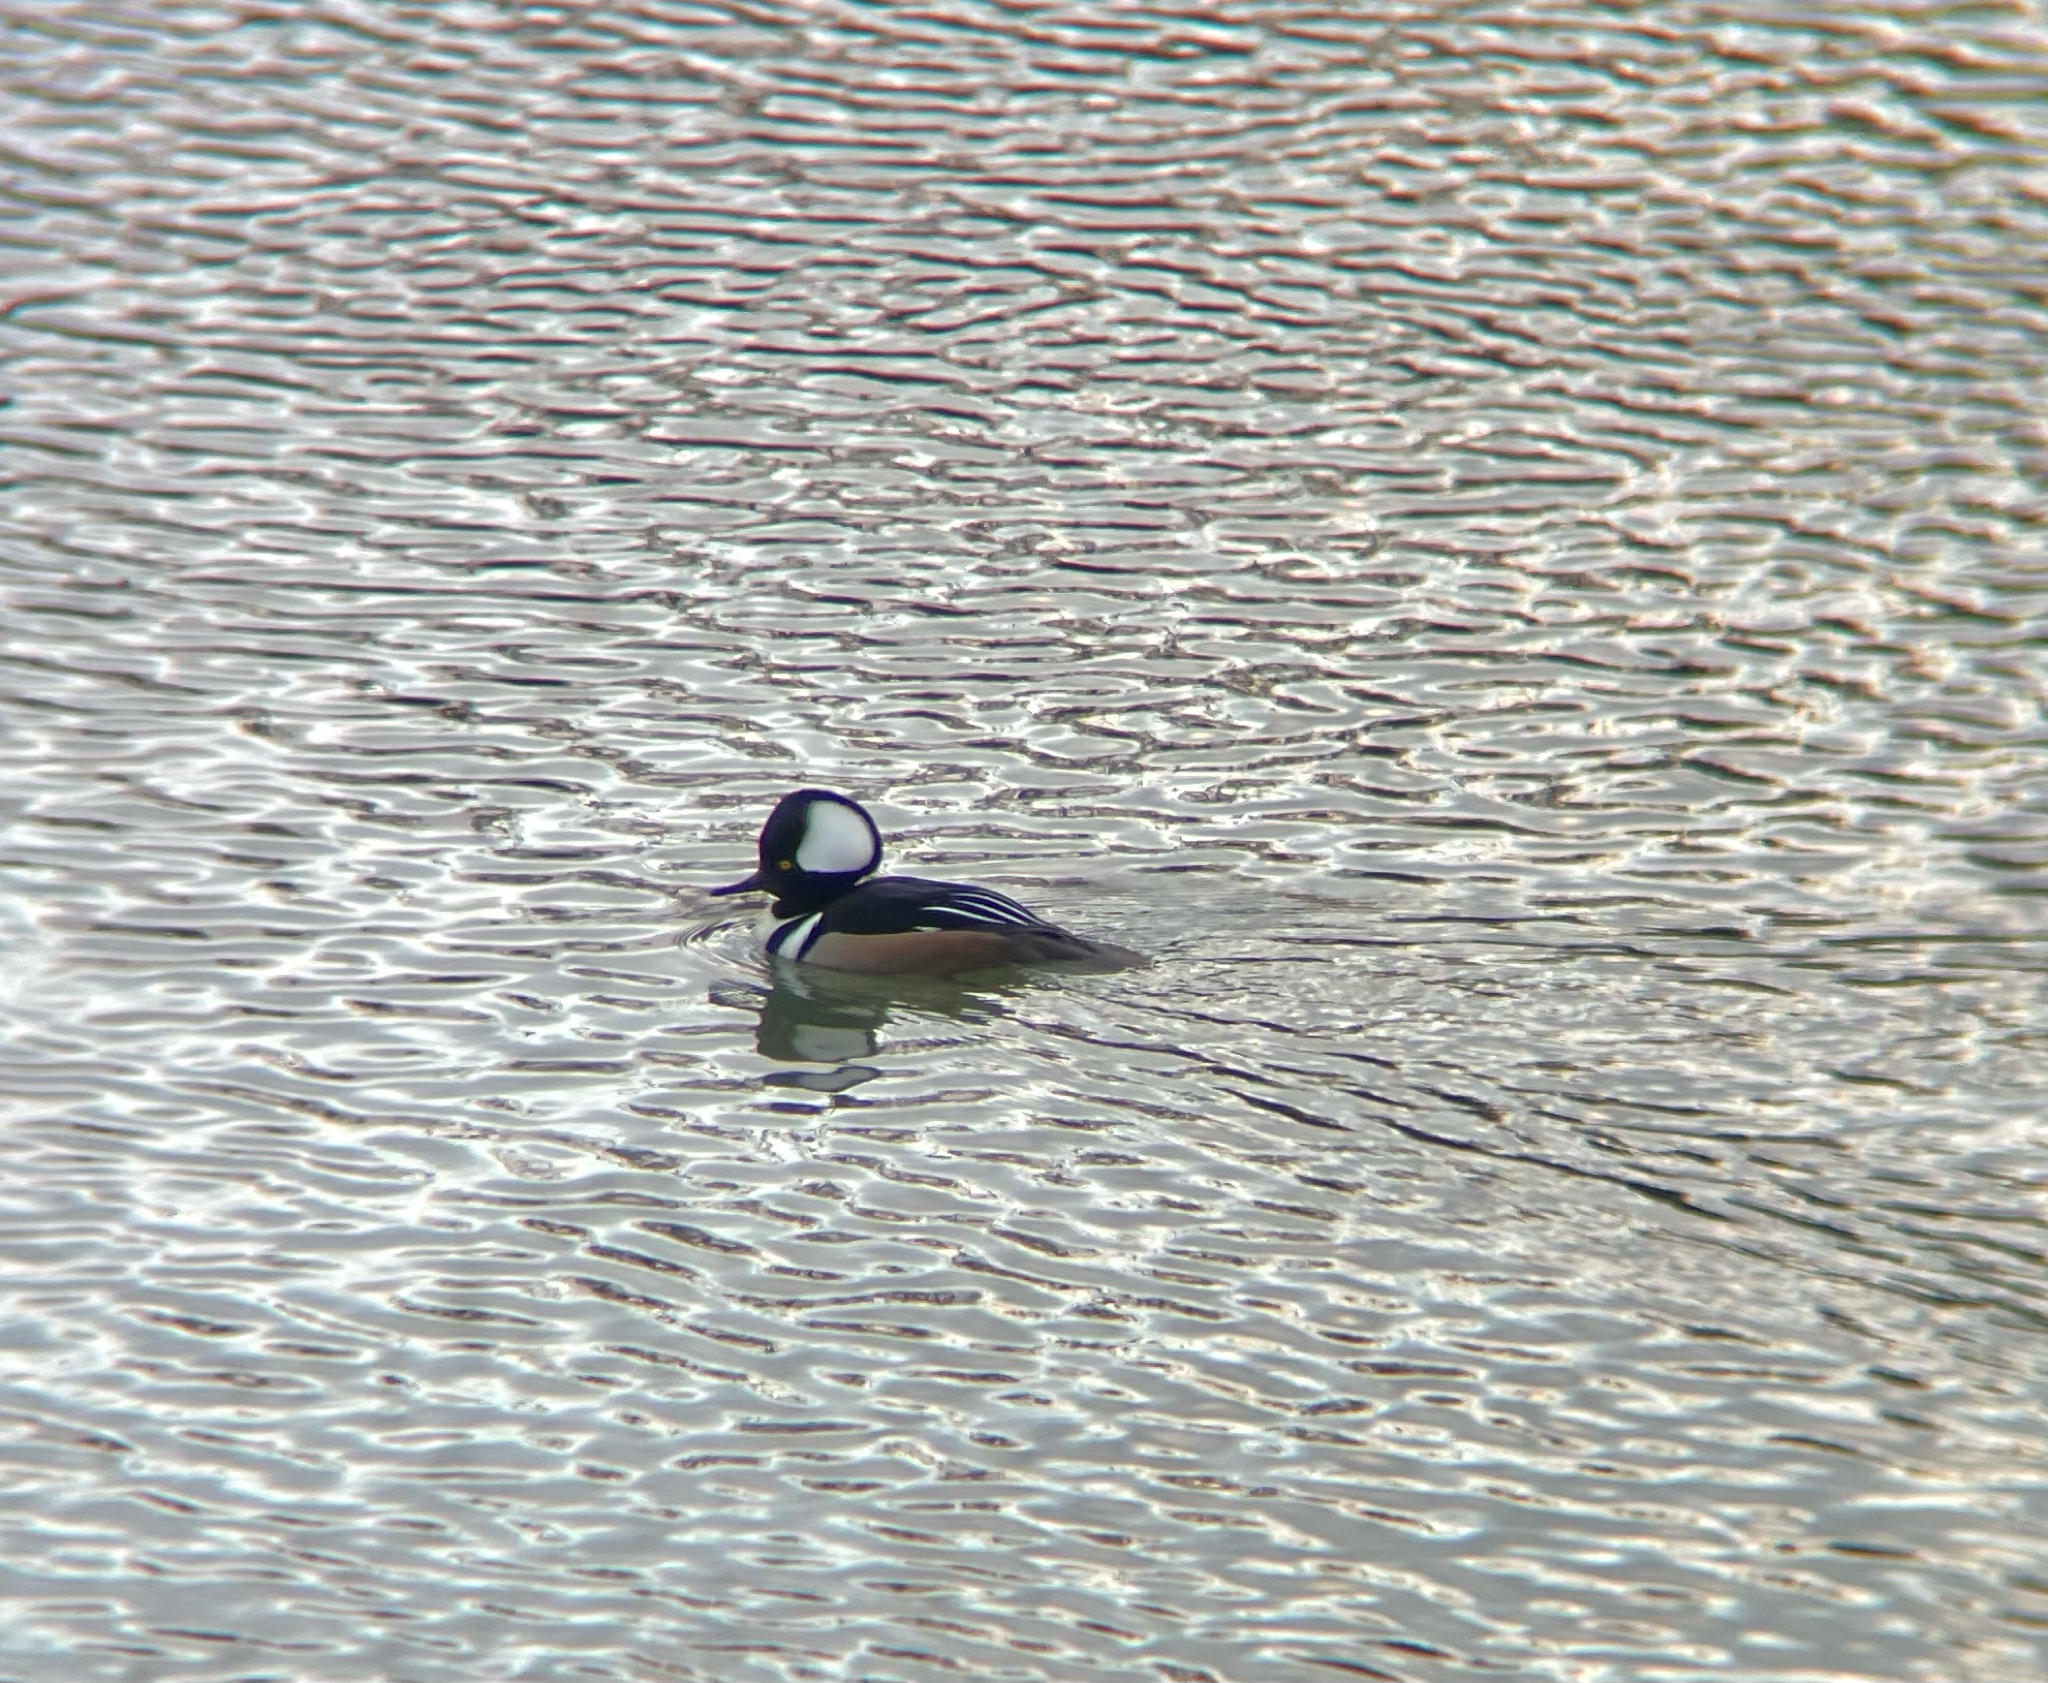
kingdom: Animalia
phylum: Chordata
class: Aves
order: Anseriformes
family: Anatidae
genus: Lophodytes
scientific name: Lophodytes cucullatus
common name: Hooded merganser
